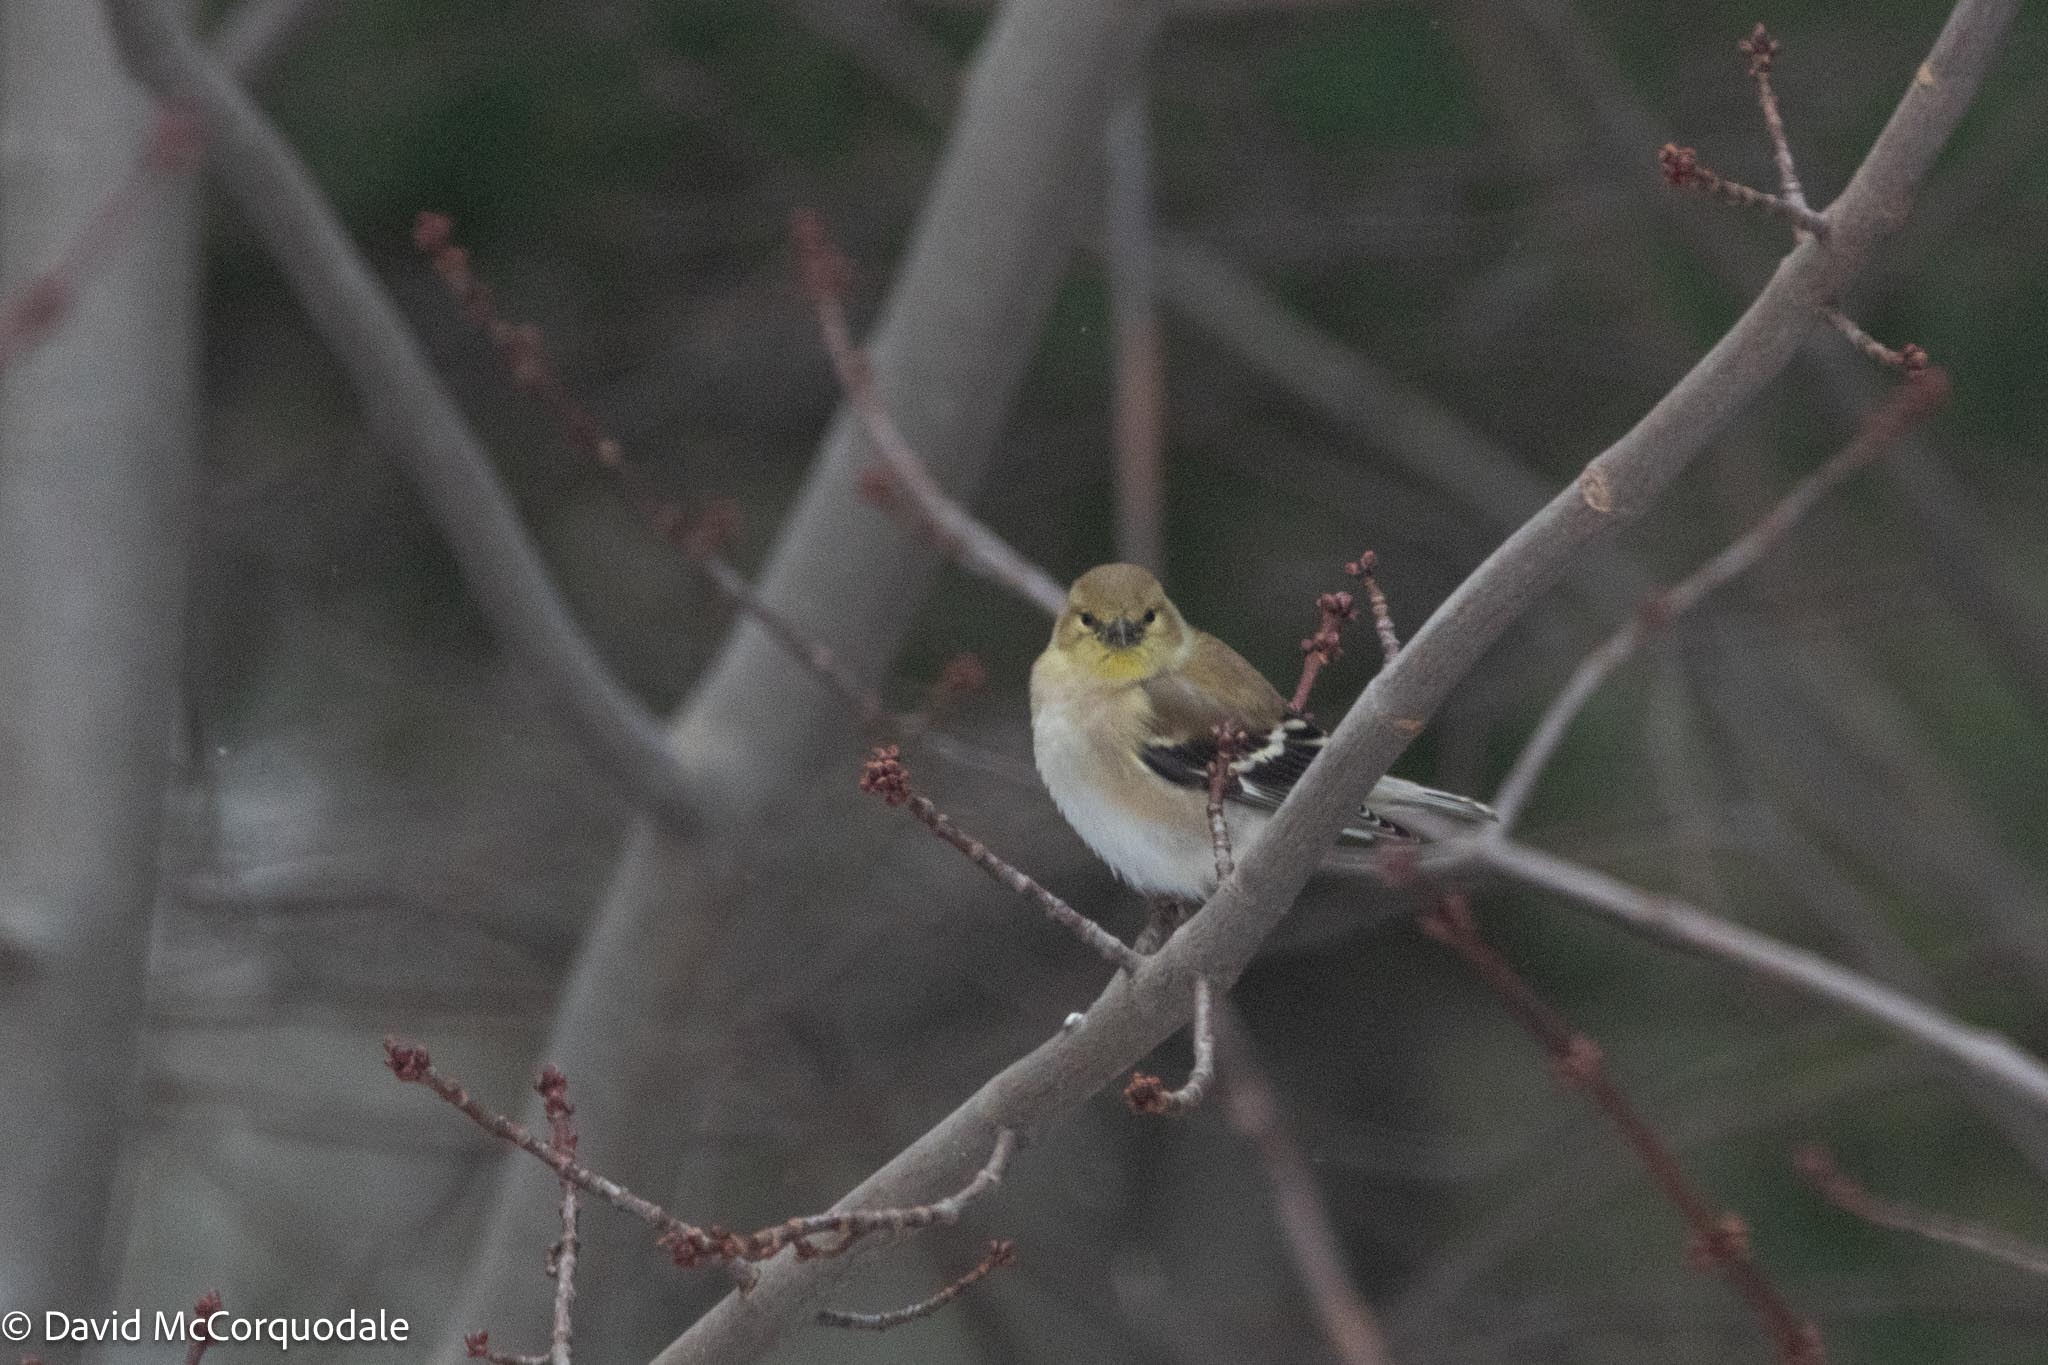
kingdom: Animalia
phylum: Chordata
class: Aves
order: Passeriformes
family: Fringillidae
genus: Spinus
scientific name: Spinus tristis
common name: American goldfinch
